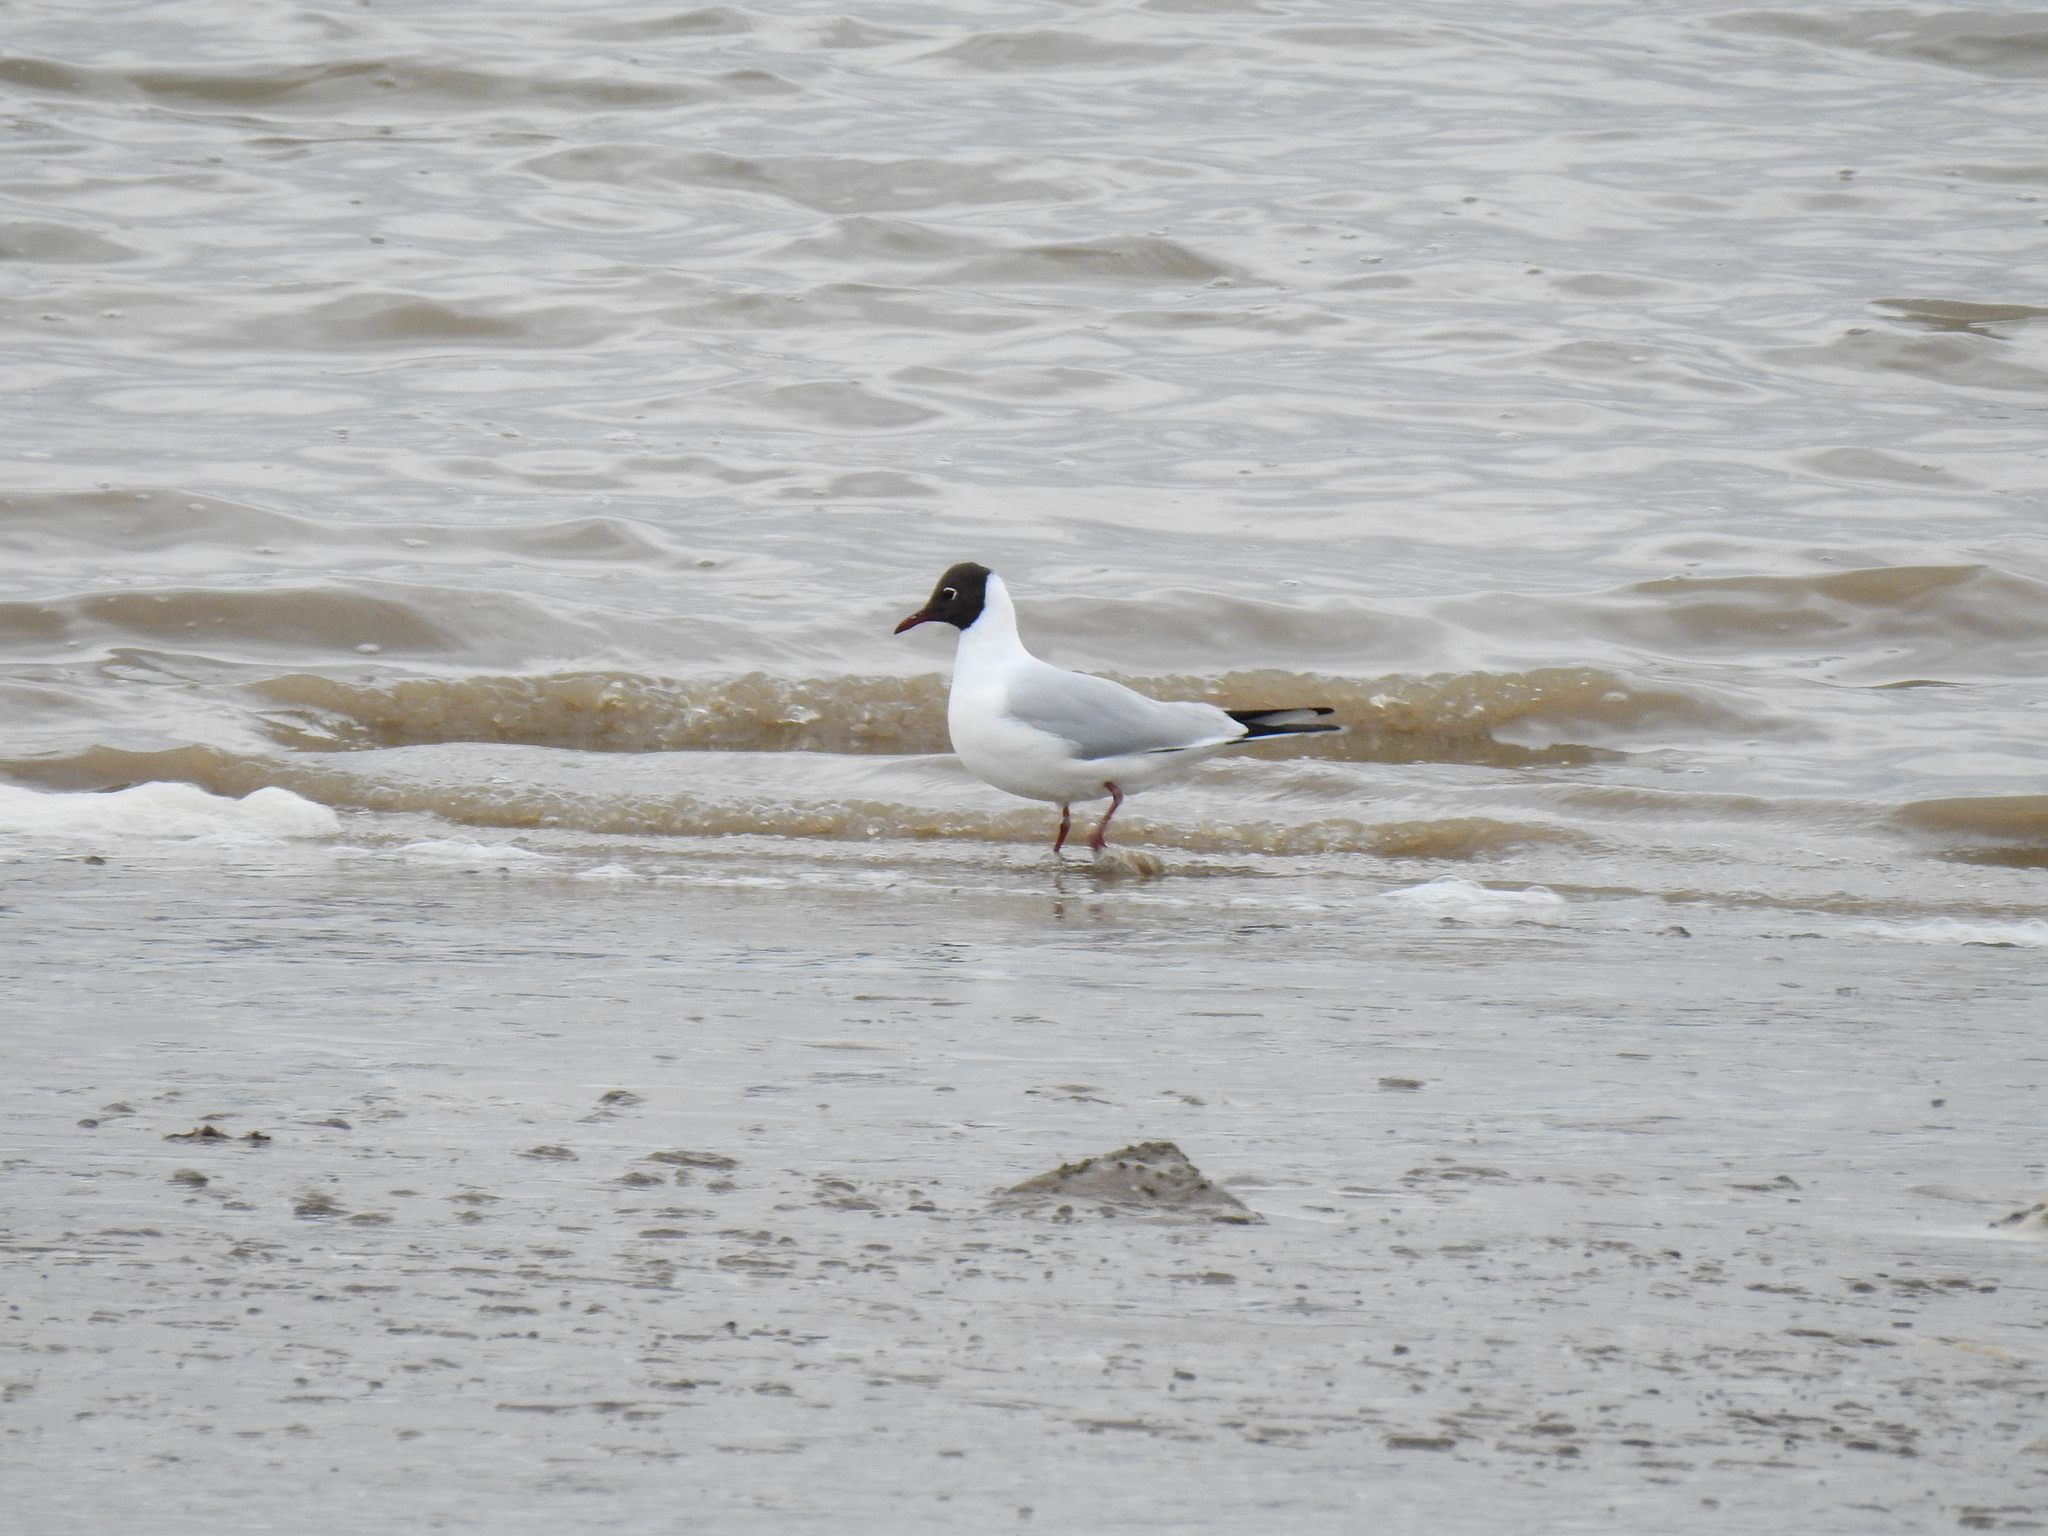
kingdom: Animalia
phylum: Chordata
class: Aves
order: Charadriiformes
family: Laridae
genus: Chroicocephalus
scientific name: Chroicocephalus ridibundus
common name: Black-headed gull
